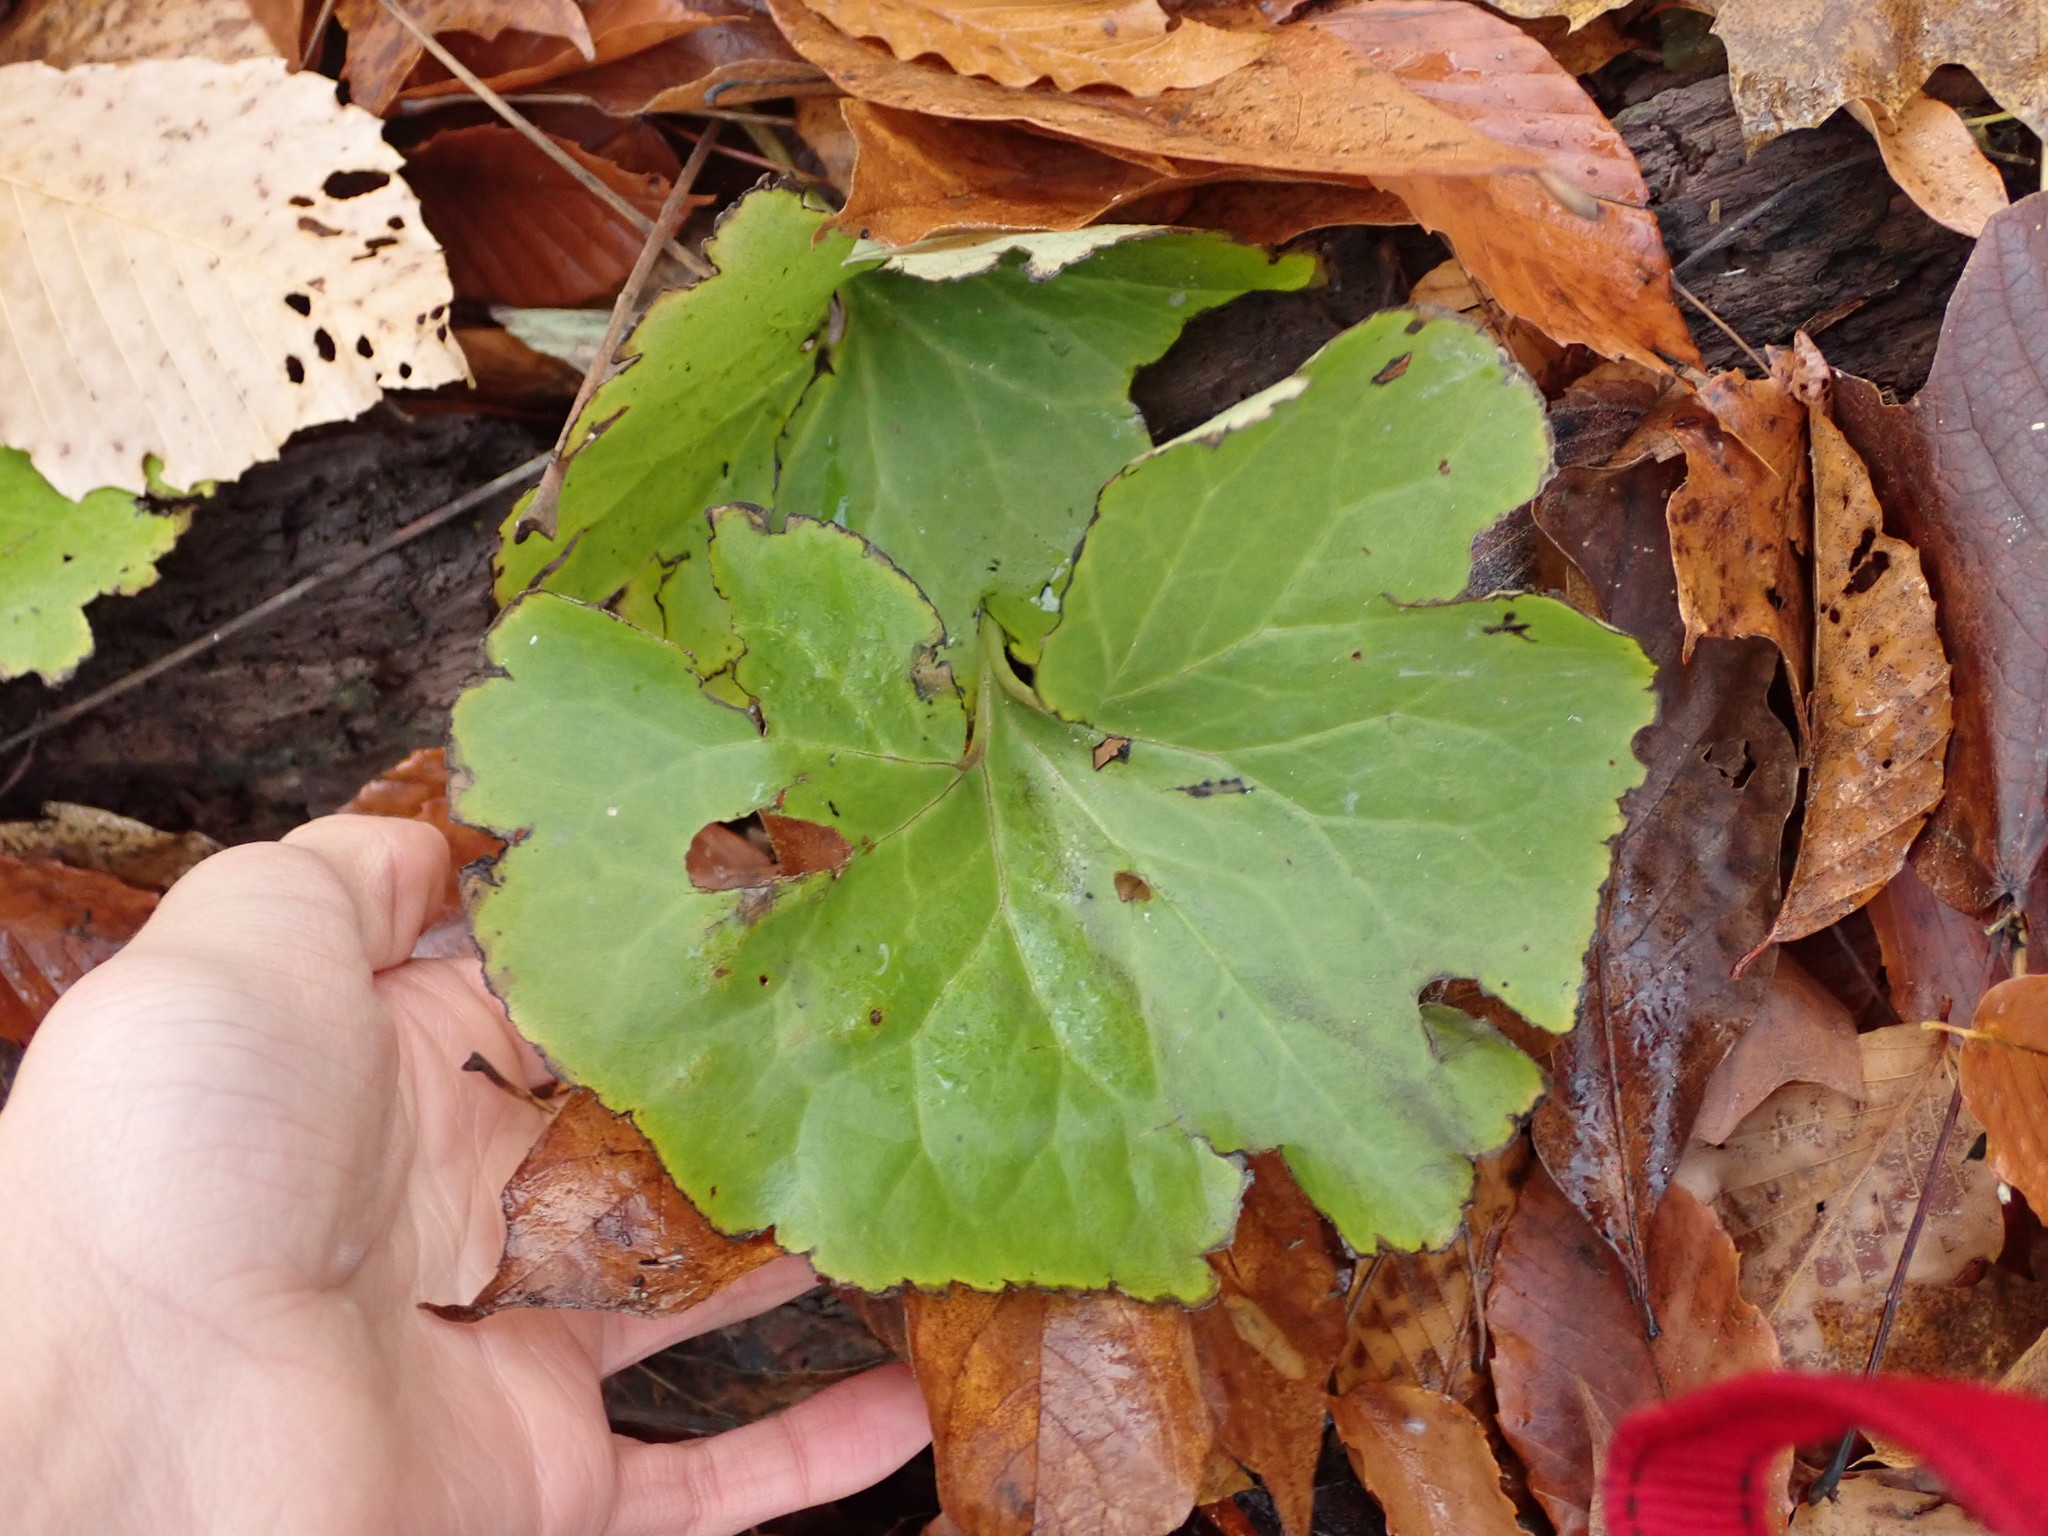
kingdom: Plantae
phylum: Tracheophyta
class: Magnoliopsida
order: Piperales
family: Aristolochiaceae
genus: Asarum
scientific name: Asarum canadense
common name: Wild ginger
